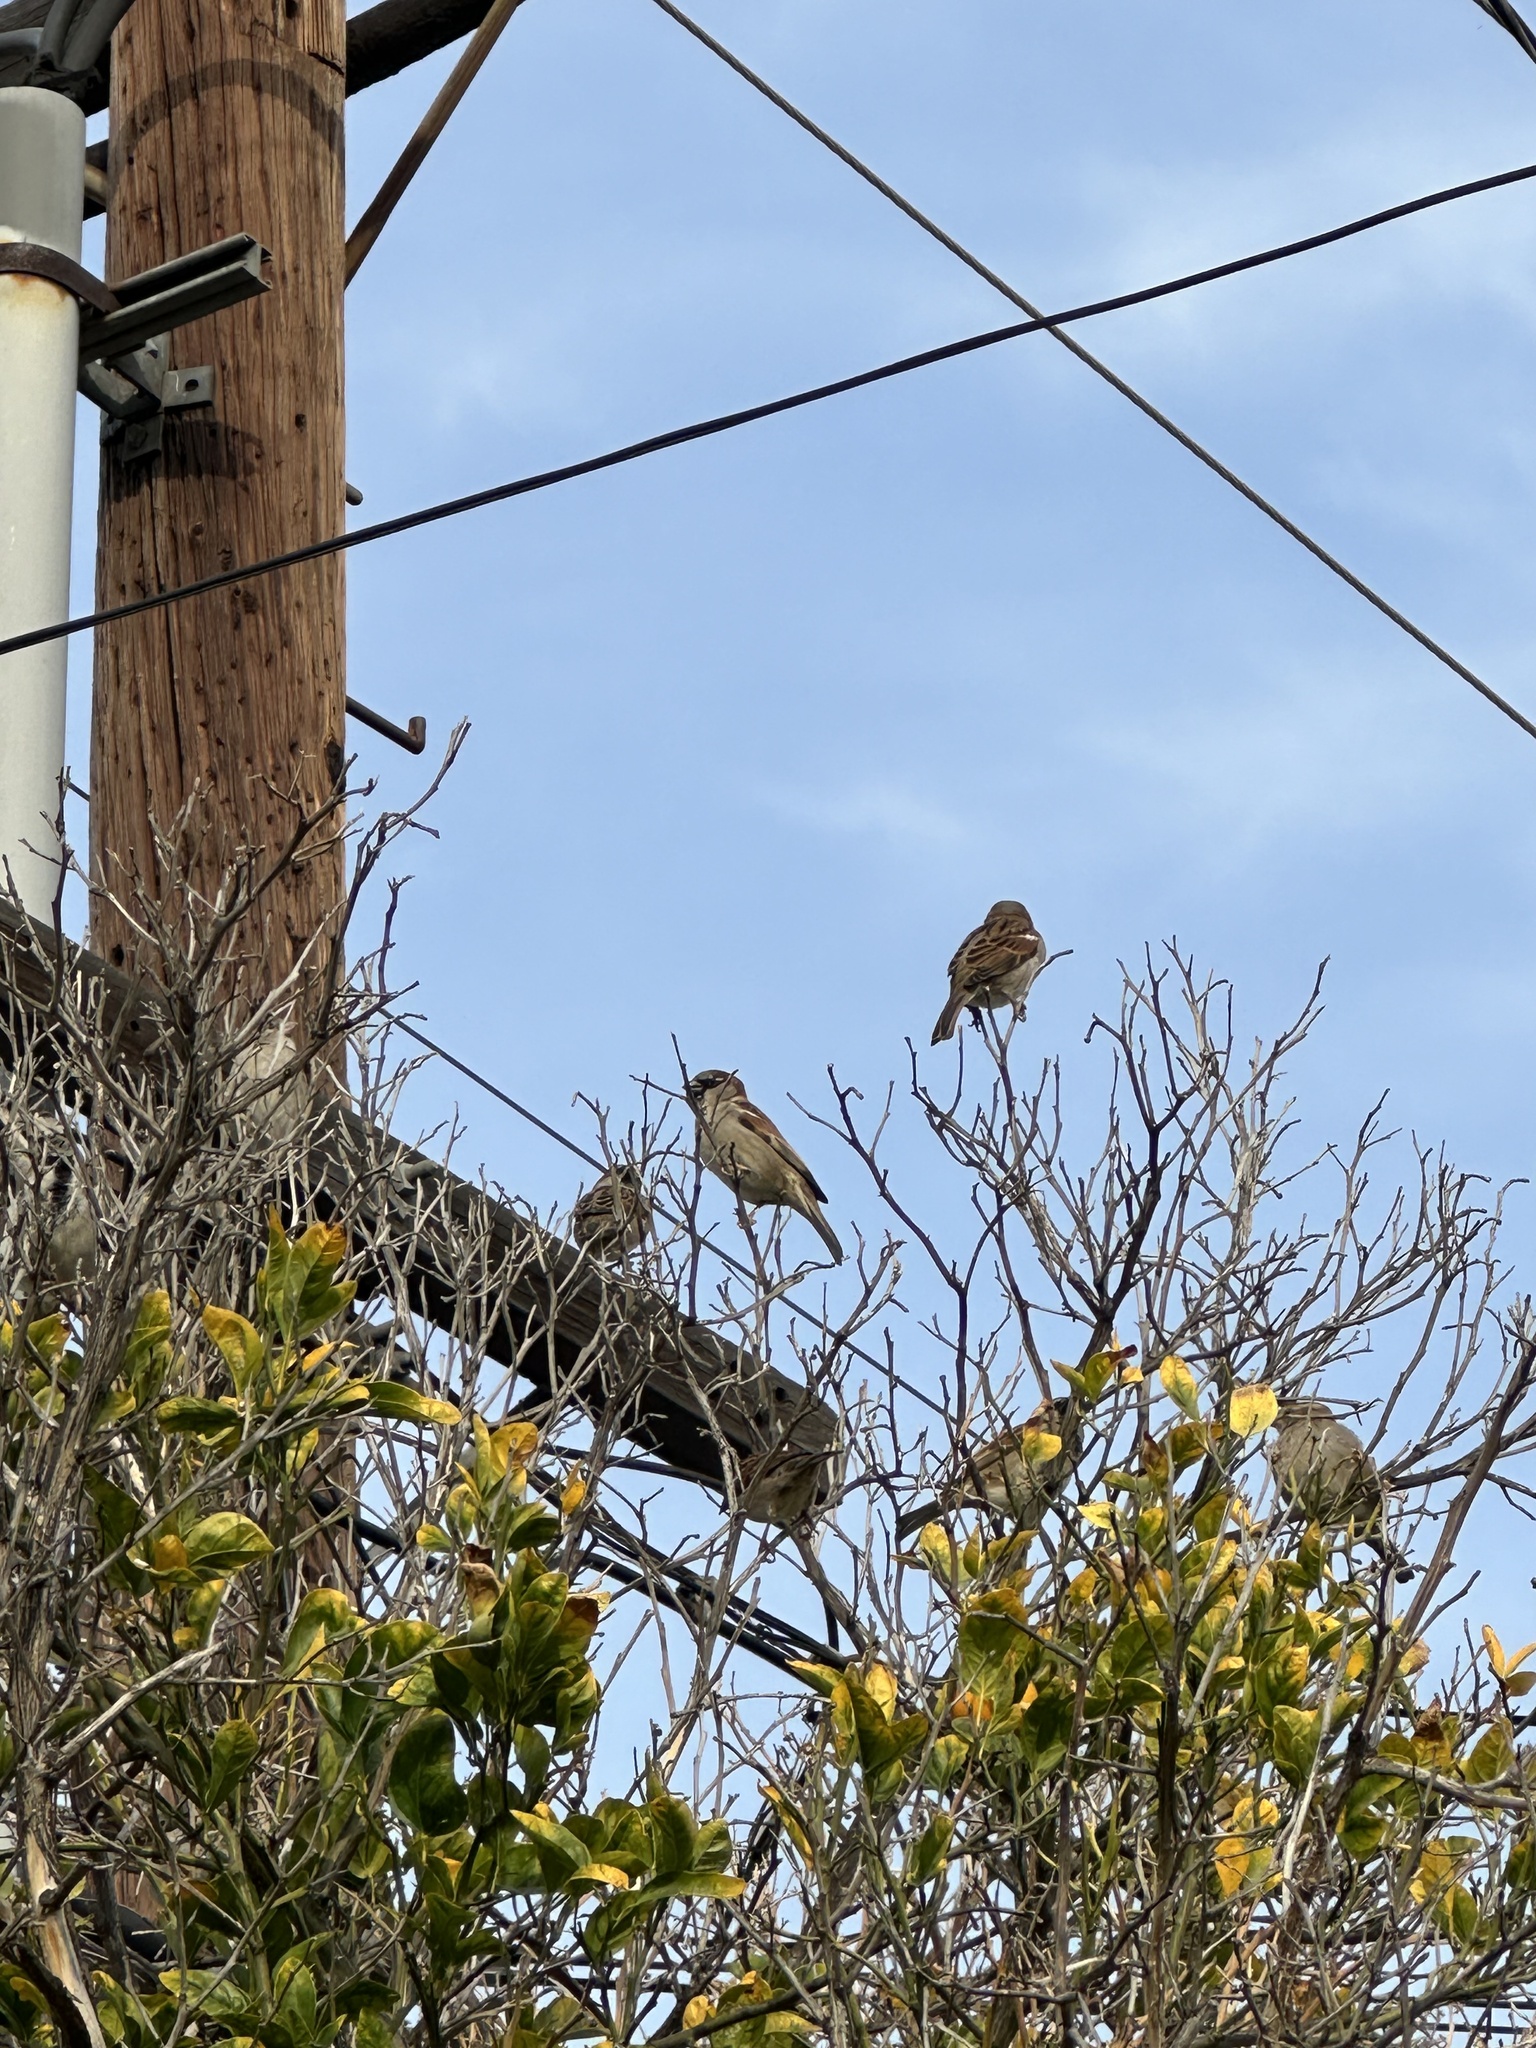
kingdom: Animalia
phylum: Chordata
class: Aves
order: Passeriformes
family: Passeridae
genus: Passer
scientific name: Passer domesticus
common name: House sparrow
